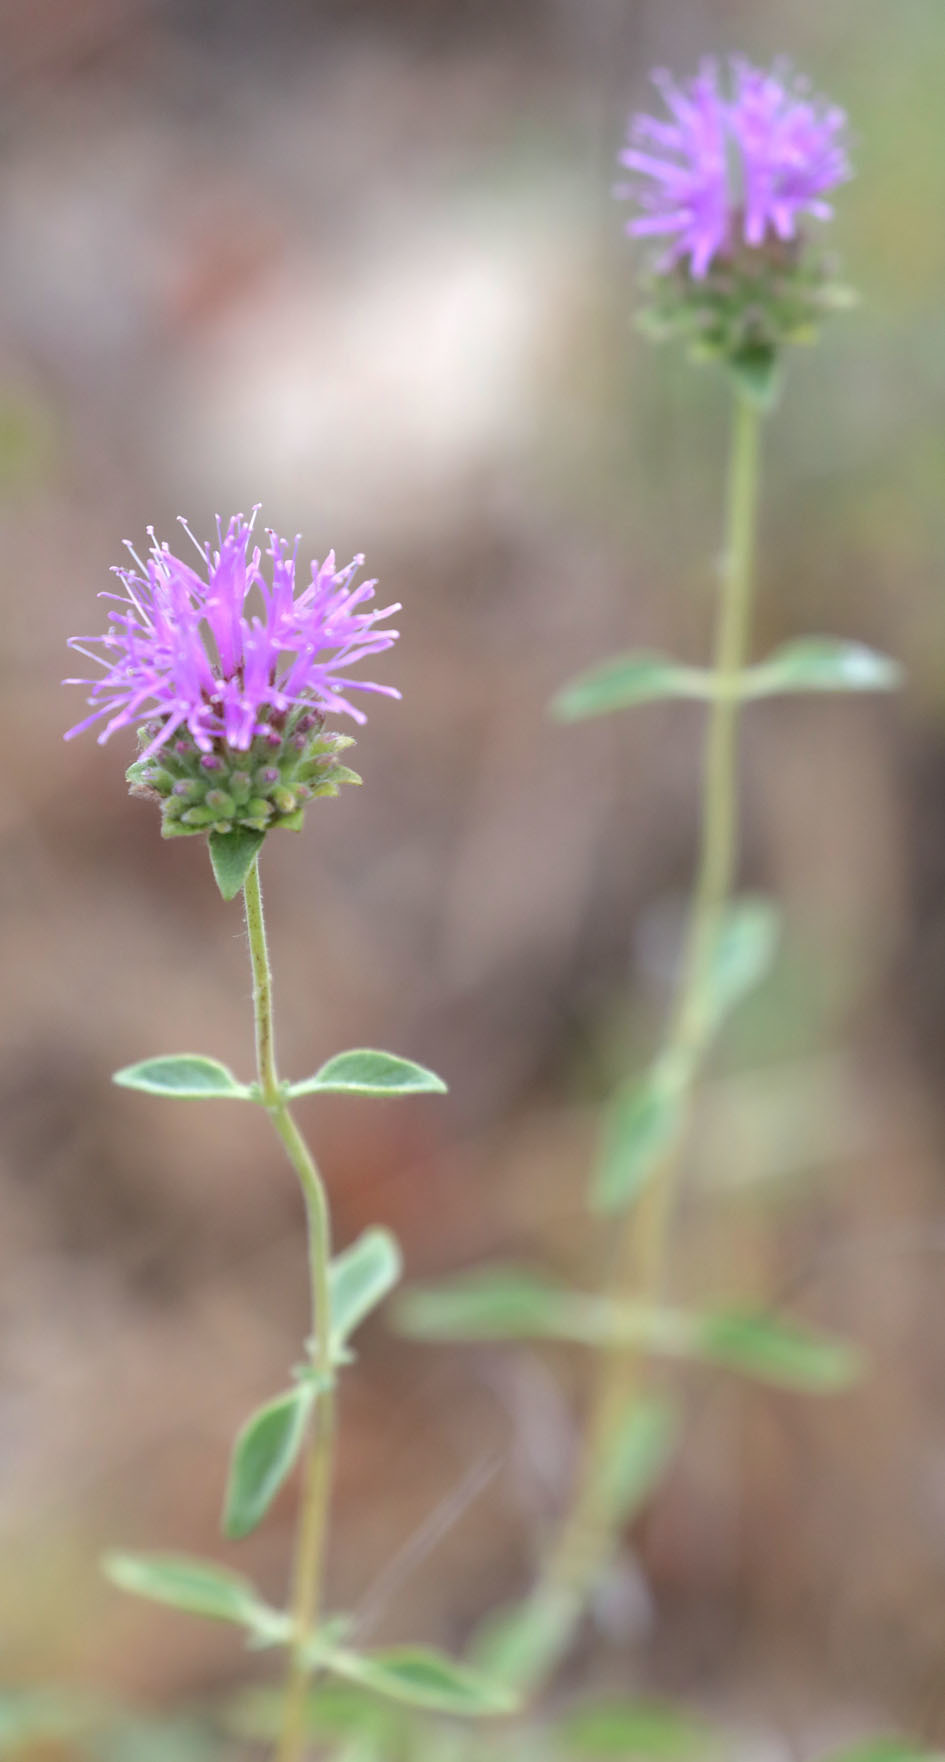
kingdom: Plantae
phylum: Tracheophyta
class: Magnoliopsida
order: Lamiales
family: Lamiaceae
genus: Monardella
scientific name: Monardella odoratissima
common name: Pacific monardella
